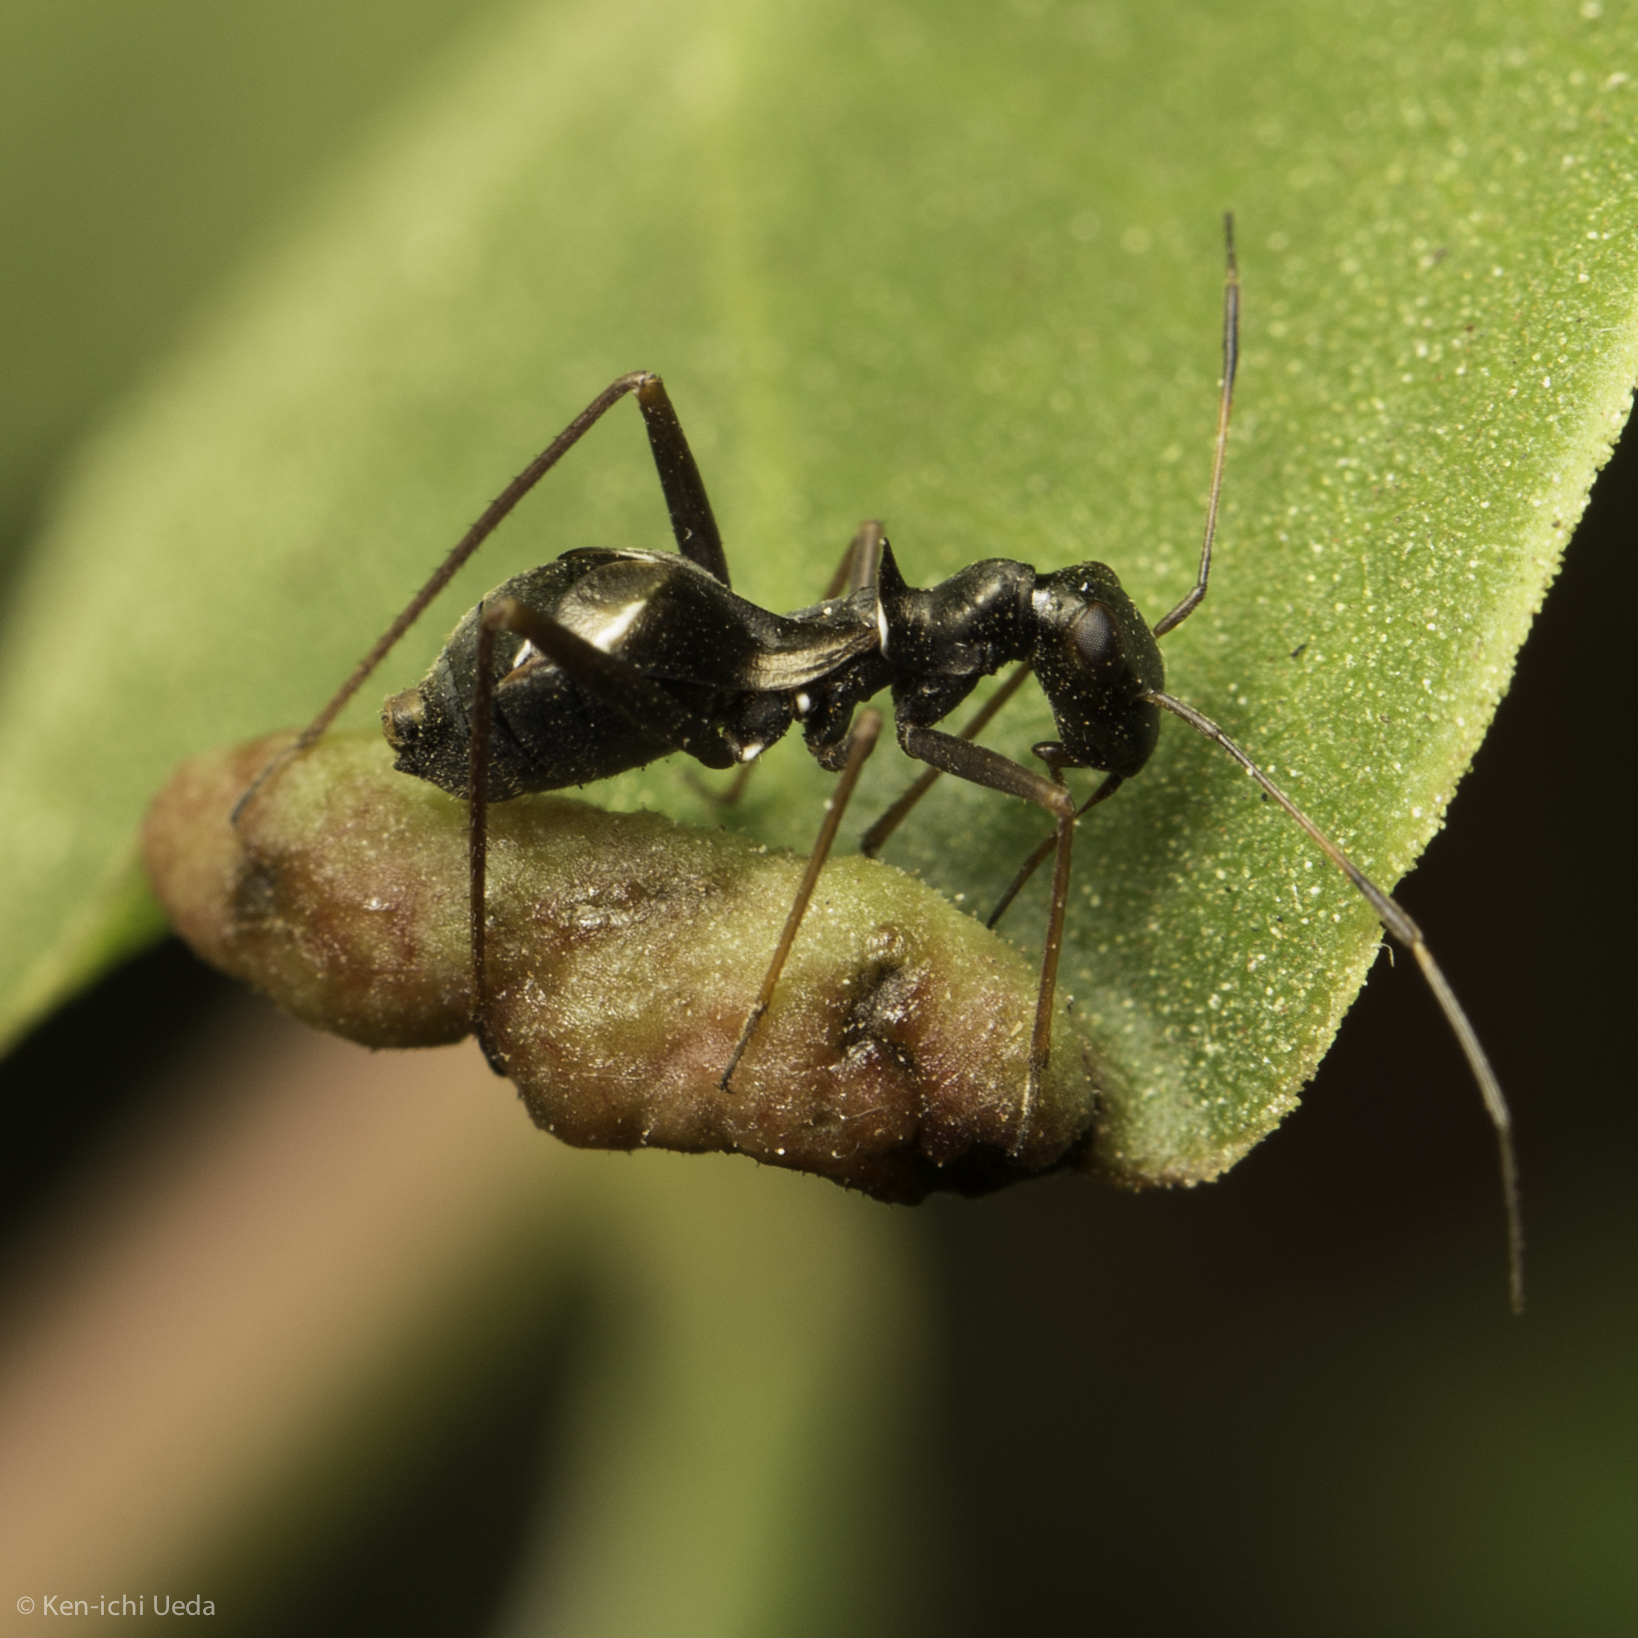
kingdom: Animalia
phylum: Arthropoda
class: Insecta
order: Hemiptera
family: Miridae
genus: Dacerla
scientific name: Dacerla mediospinosa
